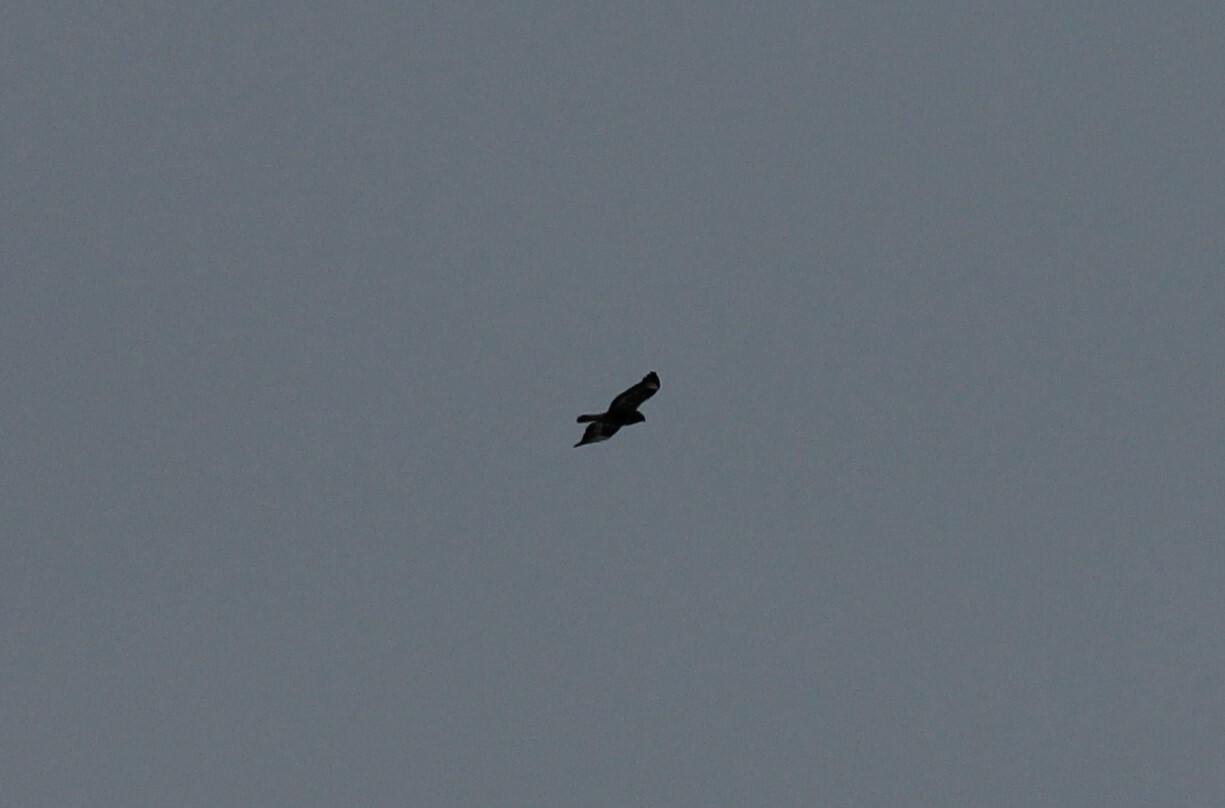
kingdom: Animalia
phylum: Chordata
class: Aves
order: Accipitriformes
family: Accipitridae
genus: Buteo
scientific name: Buteo buteo
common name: Common buzzard
